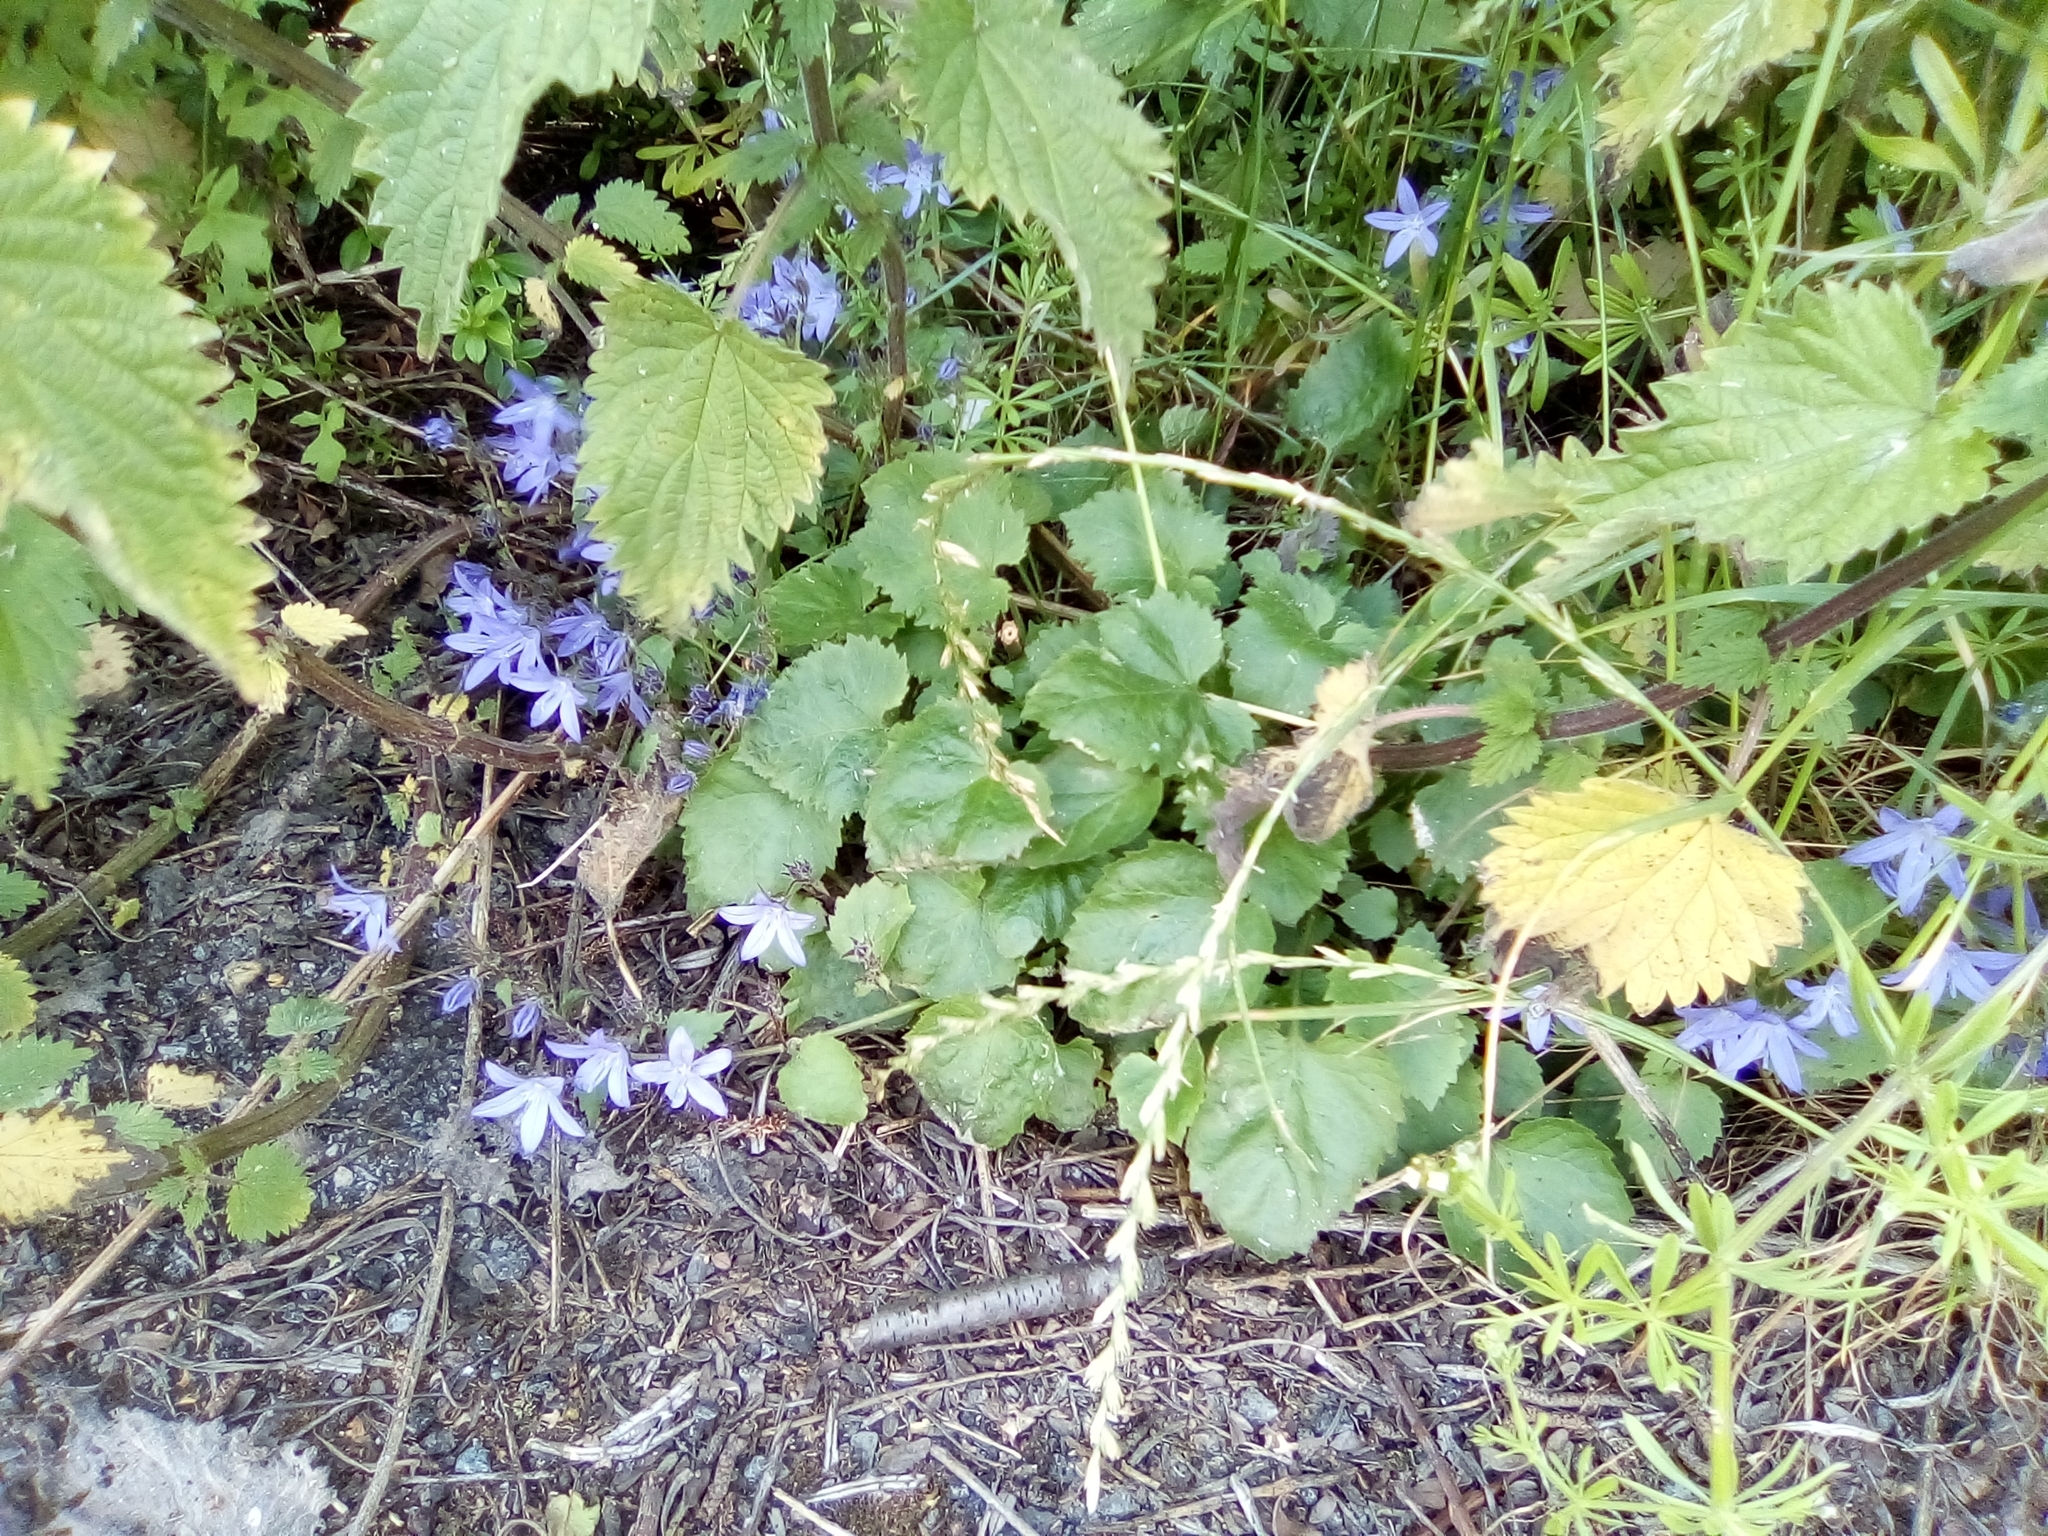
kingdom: Plantae
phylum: Tracheophyta
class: Magnoliopsida
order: Asterales
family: Campanulaceae
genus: Campanula
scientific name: Campanula poscharskyana
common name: Trailing bellflower
